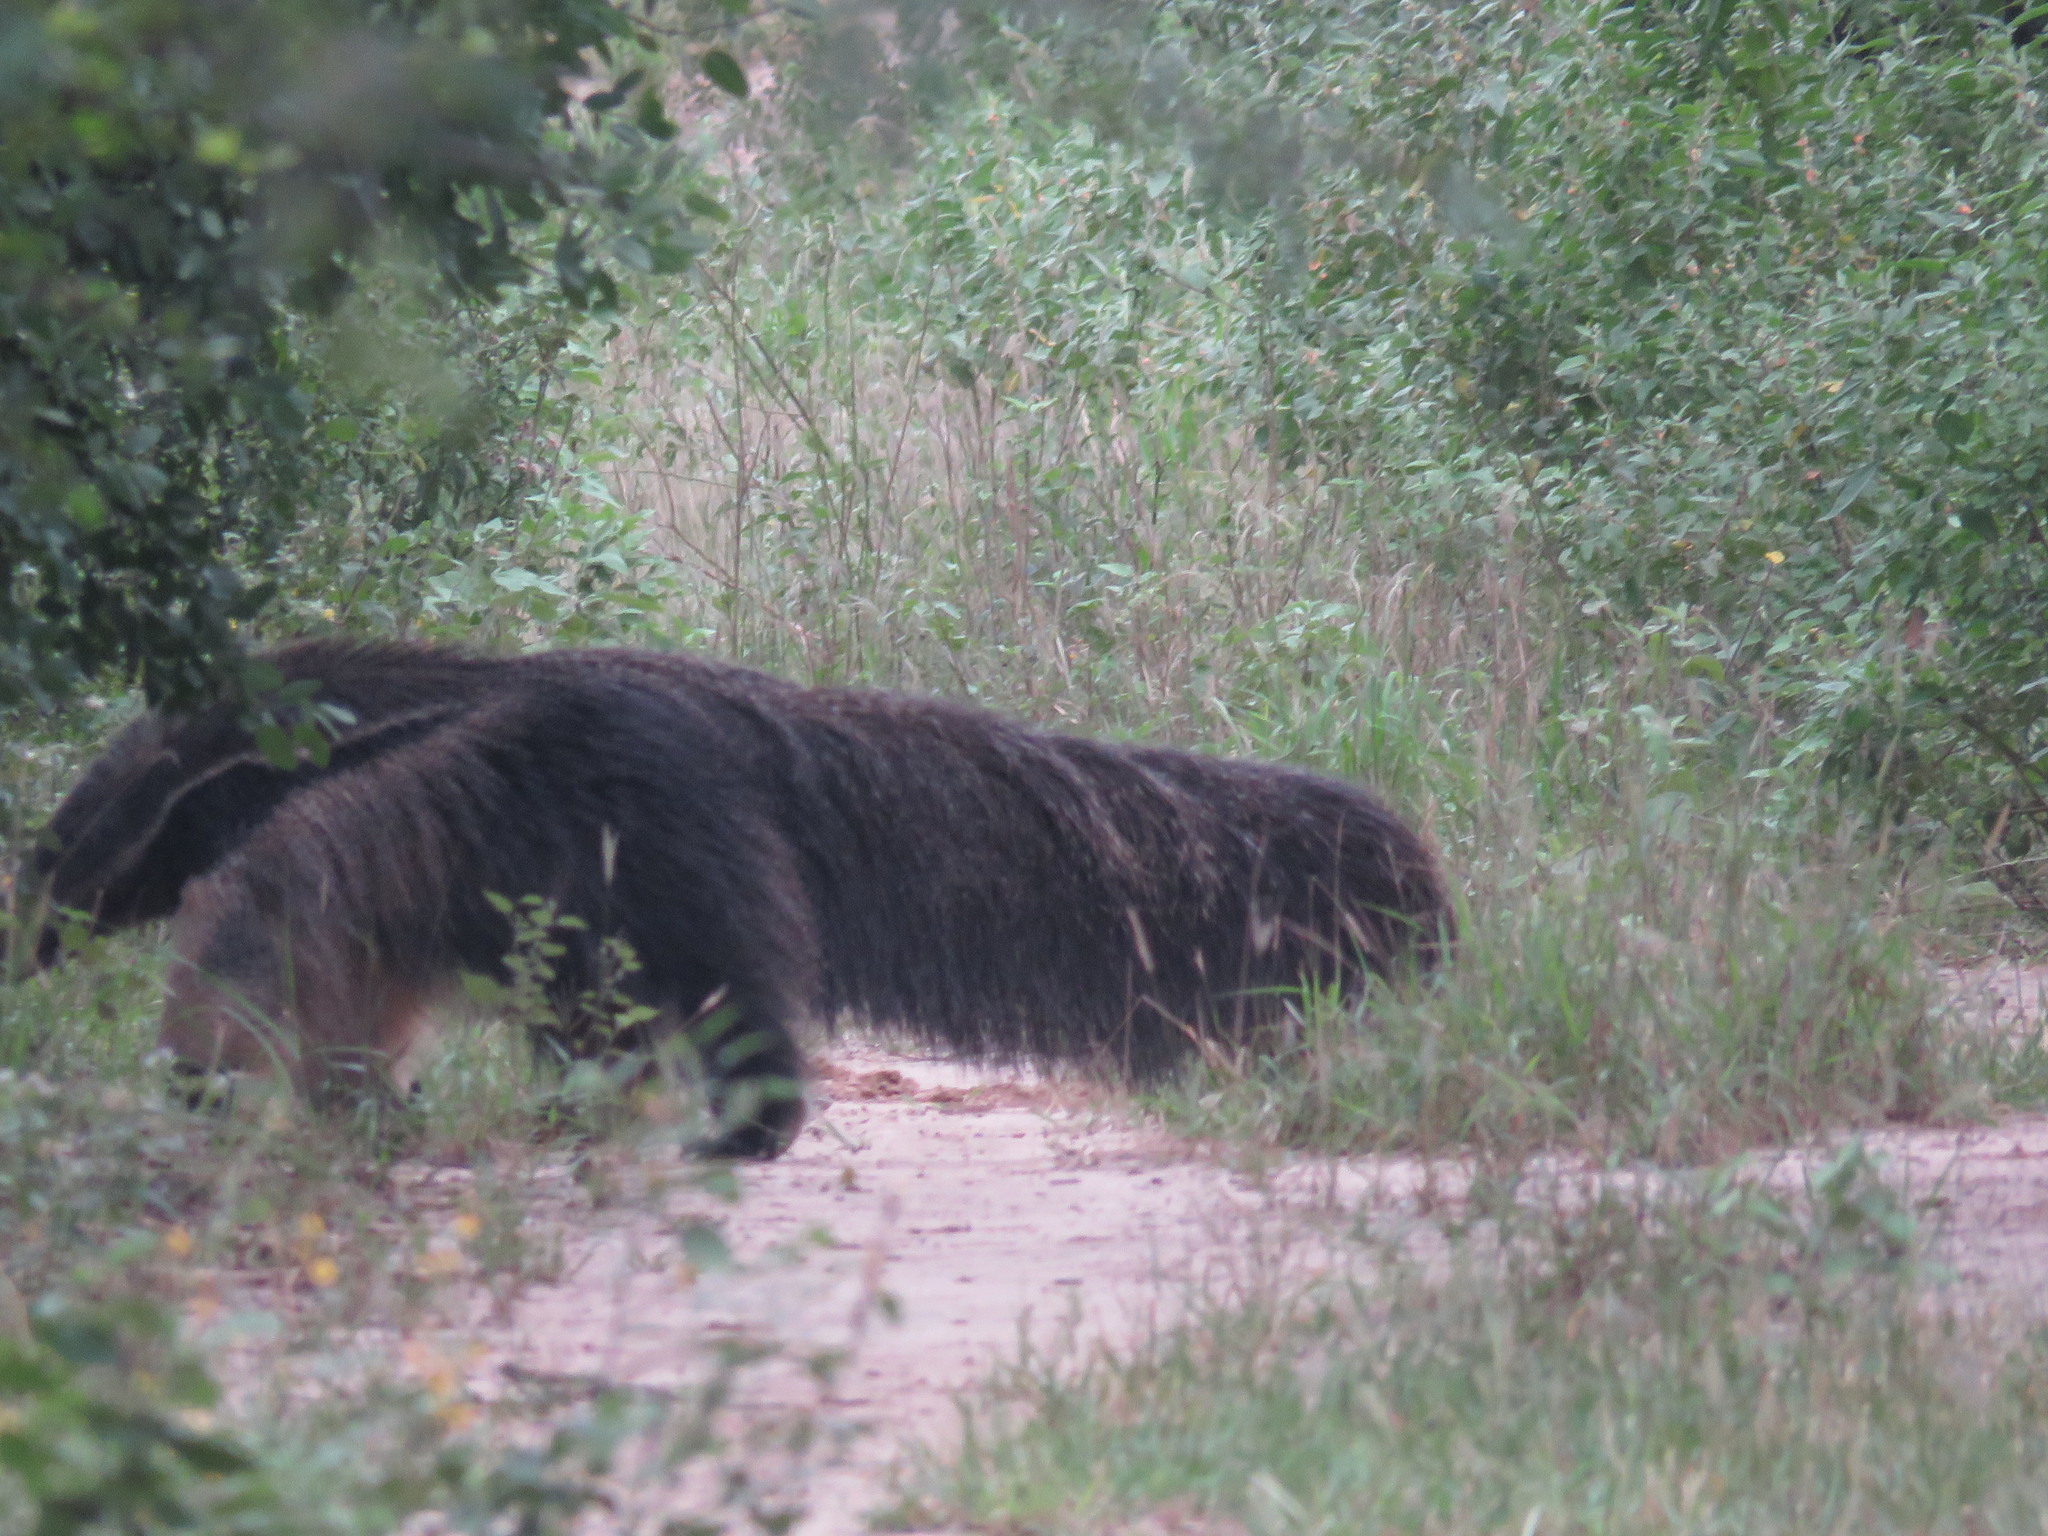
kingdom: Animalia
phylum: Chordata
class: Mammalia
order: Pilosa
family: Myrmecophagidae
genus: Myrmecophaga
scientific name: Myrmecophaga tridactyla
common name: Giant anteater
